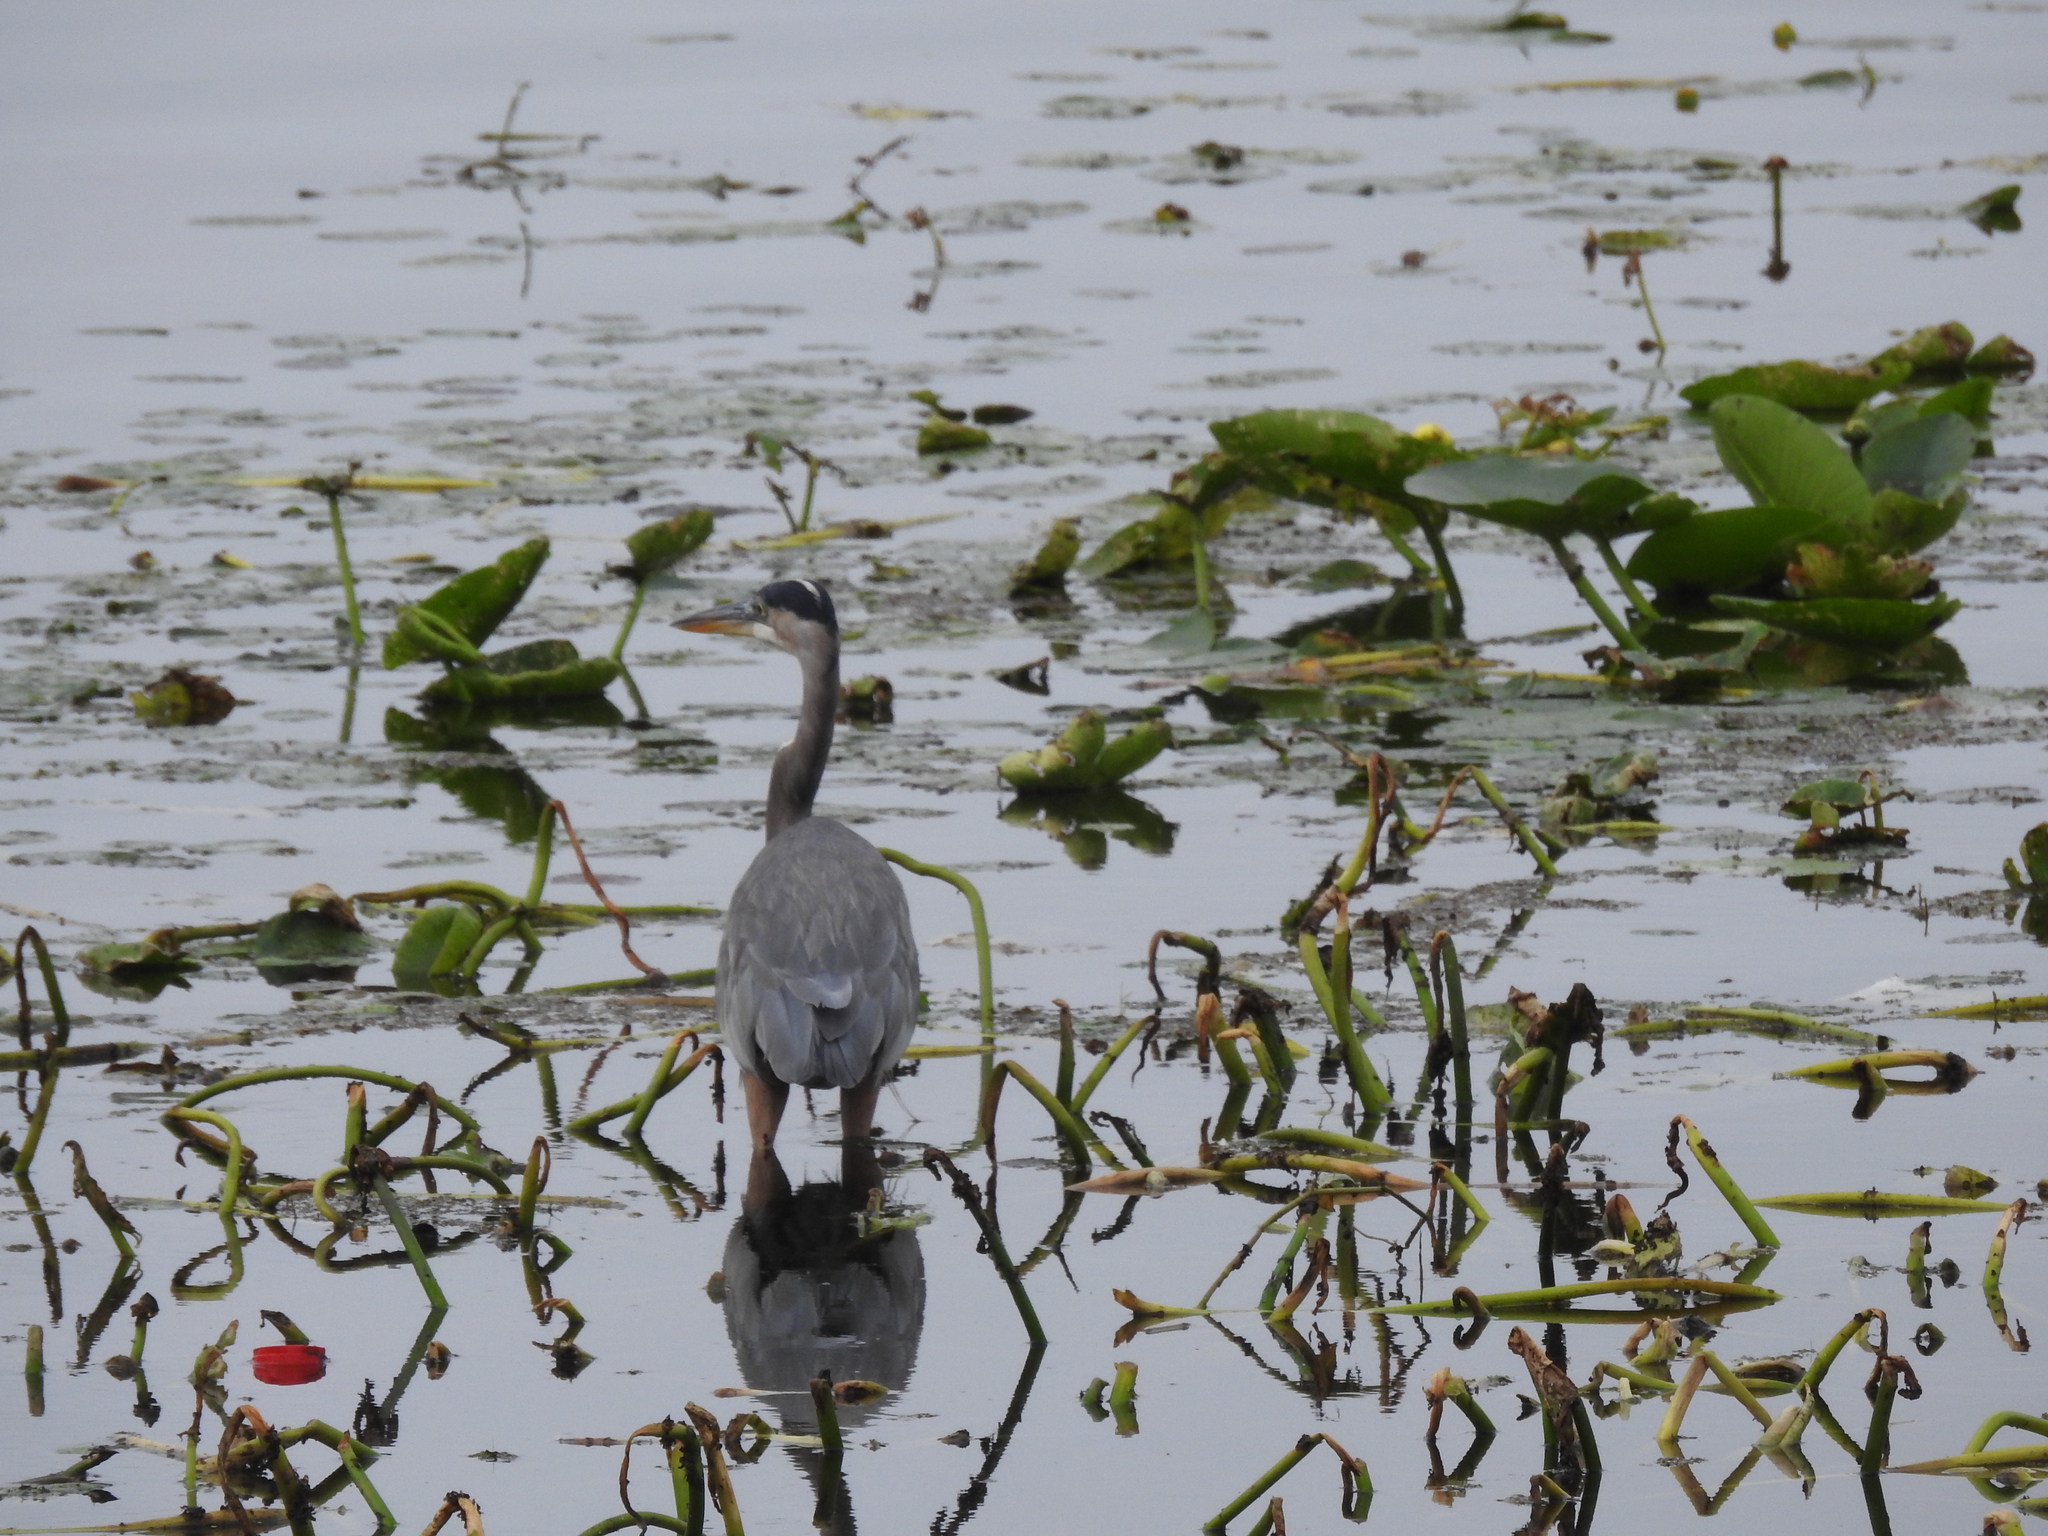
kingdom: Animalia
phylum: Chordata
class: Aves
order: Pelecaniformes
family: Ardeidae
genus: Ardea
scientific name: Ardea herodias
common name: Great blue heron
